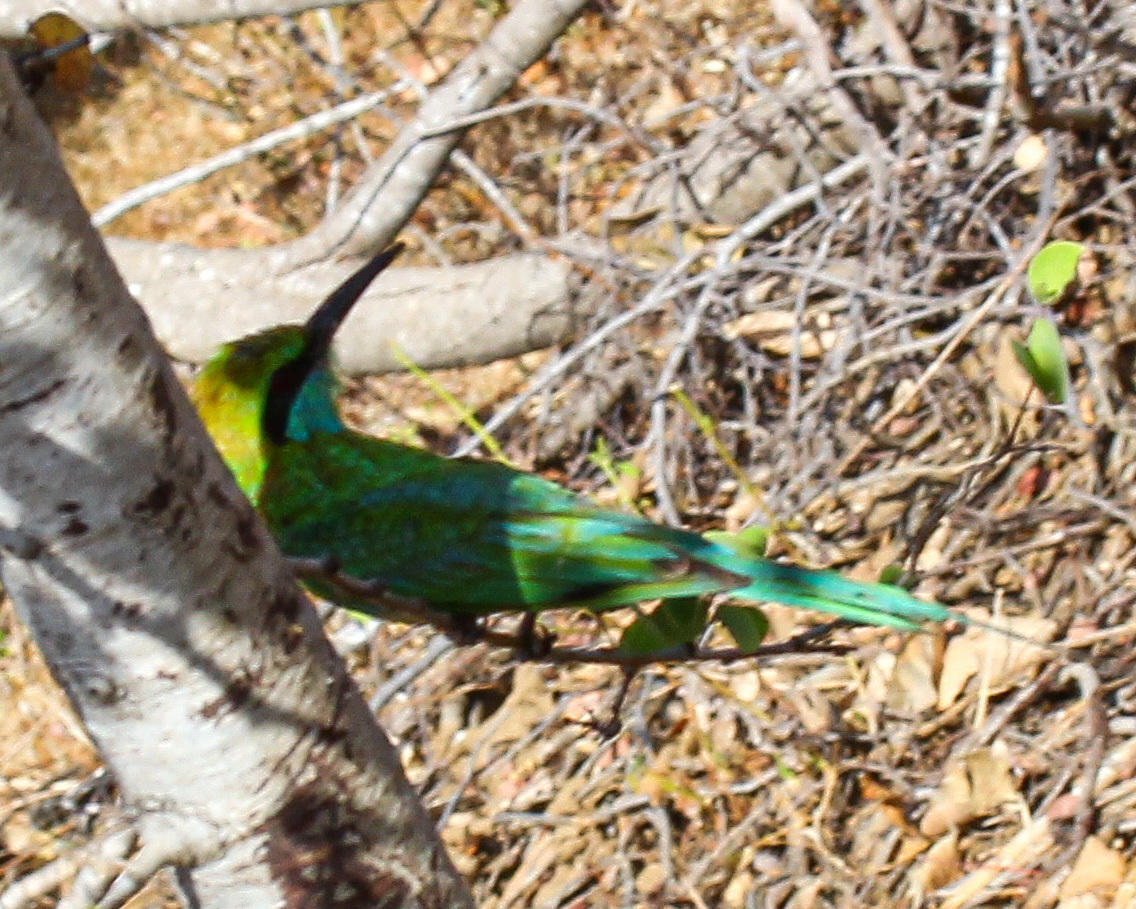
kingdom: Animalia
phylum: Chordata
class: Aves
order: Coraciiformes
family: Meropidae
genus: Merops
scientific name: Merops orientalis
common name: Green bee-eater
